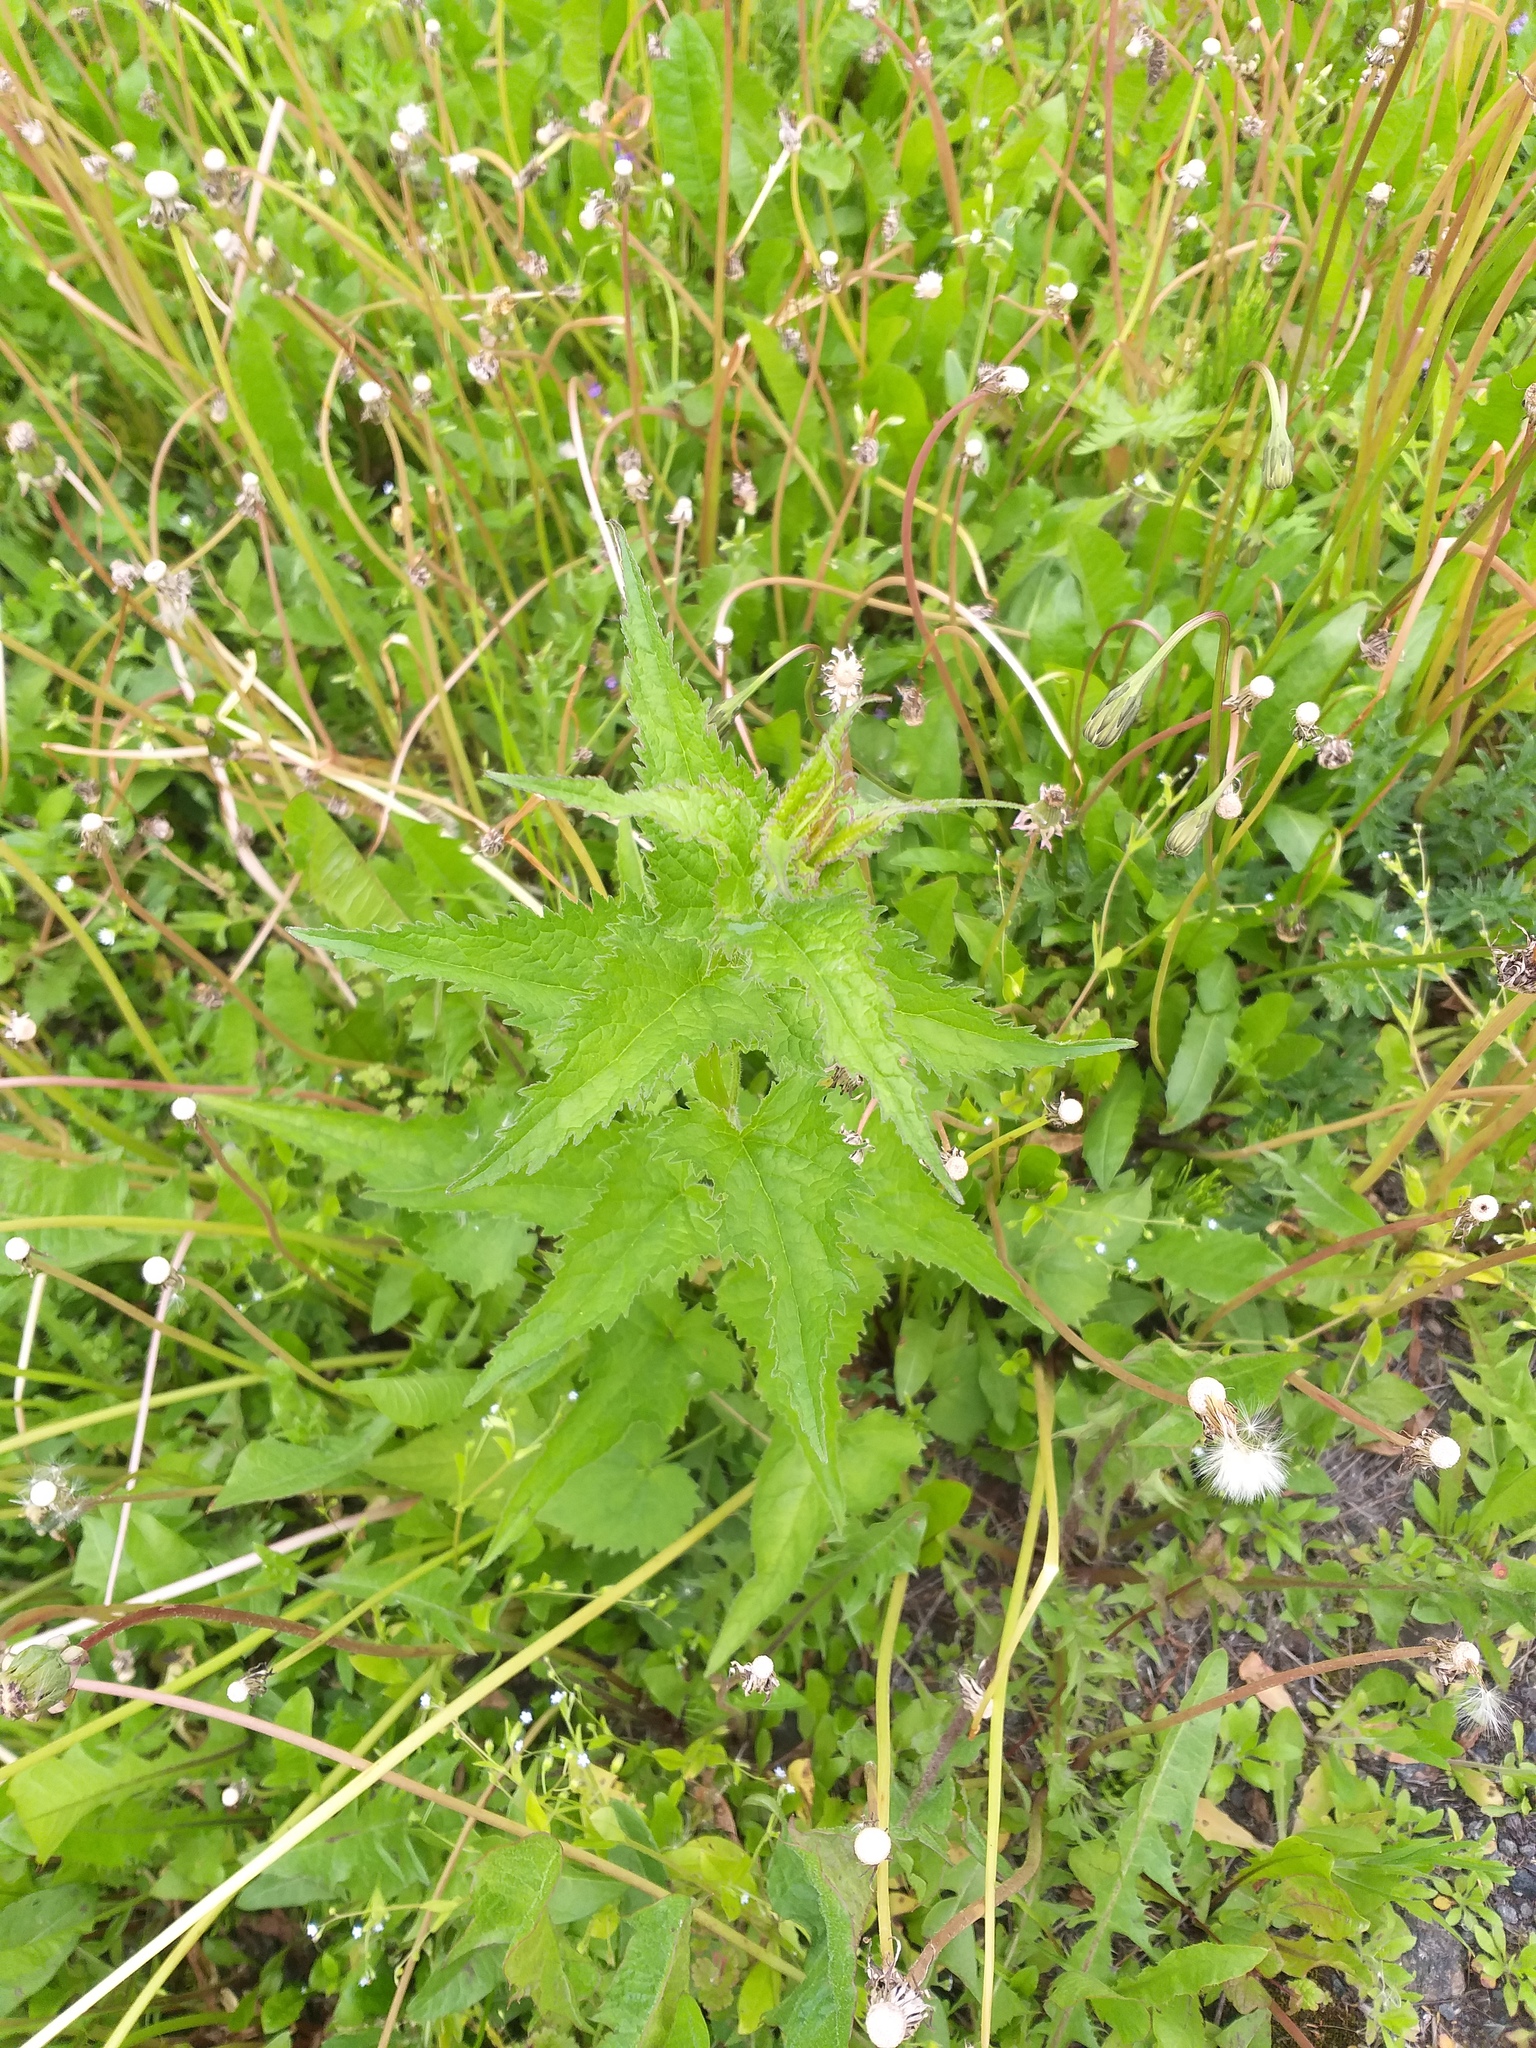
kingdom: Plantae
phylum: Tracheophyta
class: Magnoliopsida
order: Asterales
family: Campanulaceae
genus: Campanula
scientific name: Campanula trachelium
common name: Nettle-leaved bellflower
